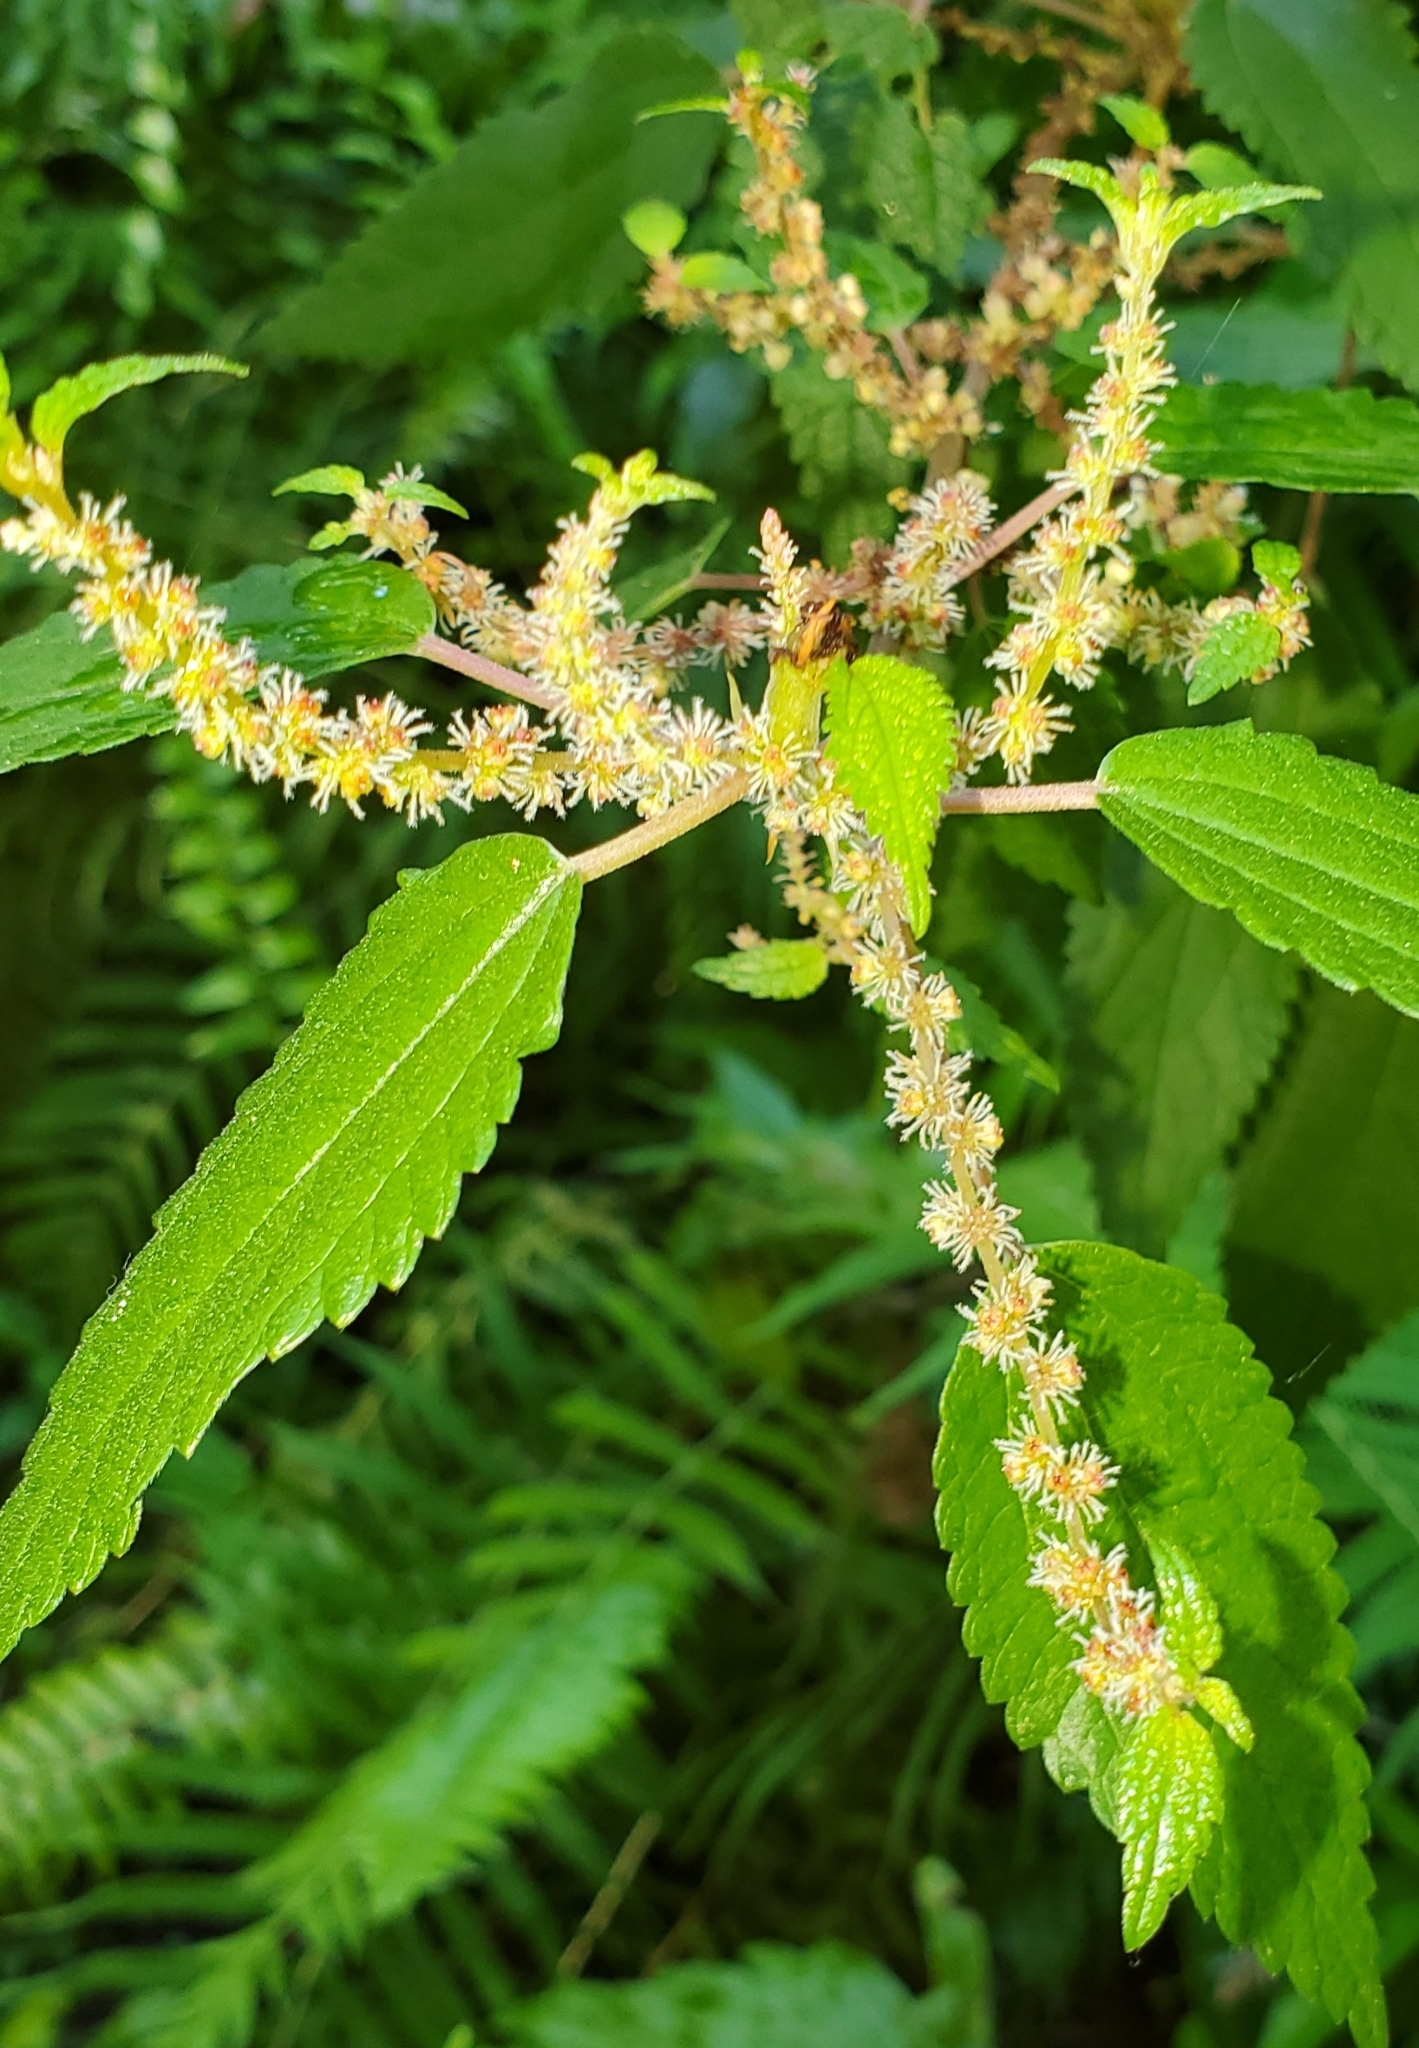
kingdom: Plantae
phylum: Tracheophyta
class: Magnoliopsida
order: Rosales
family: Urticaceae
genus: Boehmeria
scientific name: Boehmeria cylindrica
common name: Bog-hemp
